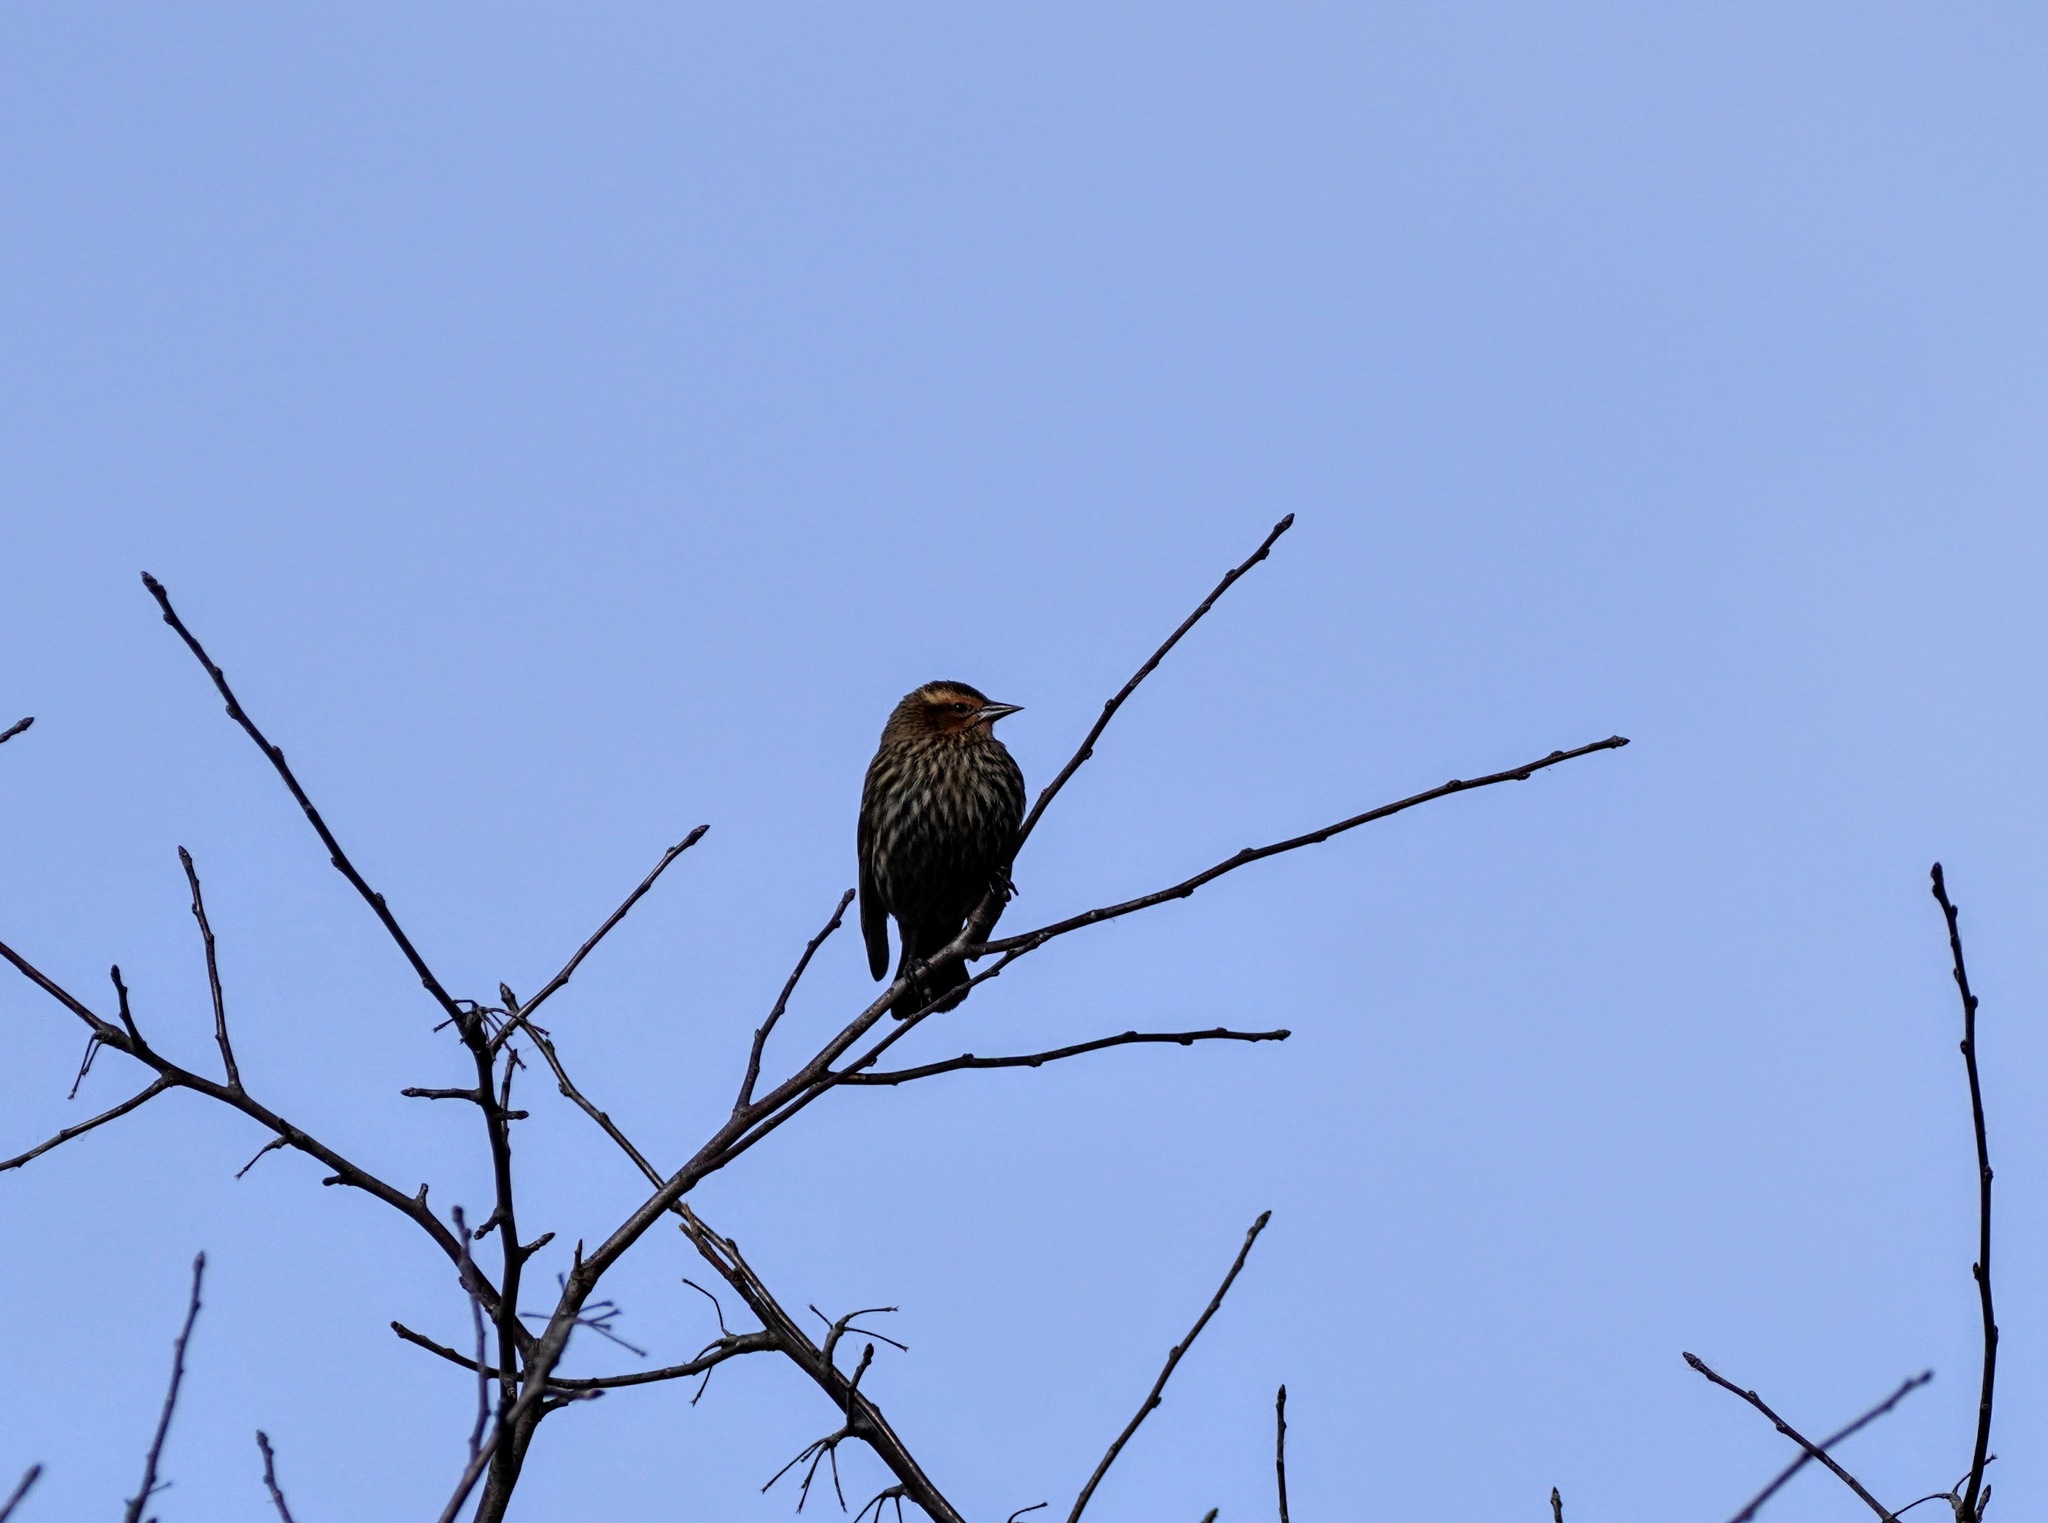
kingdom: Animalia
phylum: Chordata
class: Aves
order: Passeriformes
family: Icteridae
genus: Agelaius
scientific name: Agelaius phoeniceus
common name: Red-winged blackbird
